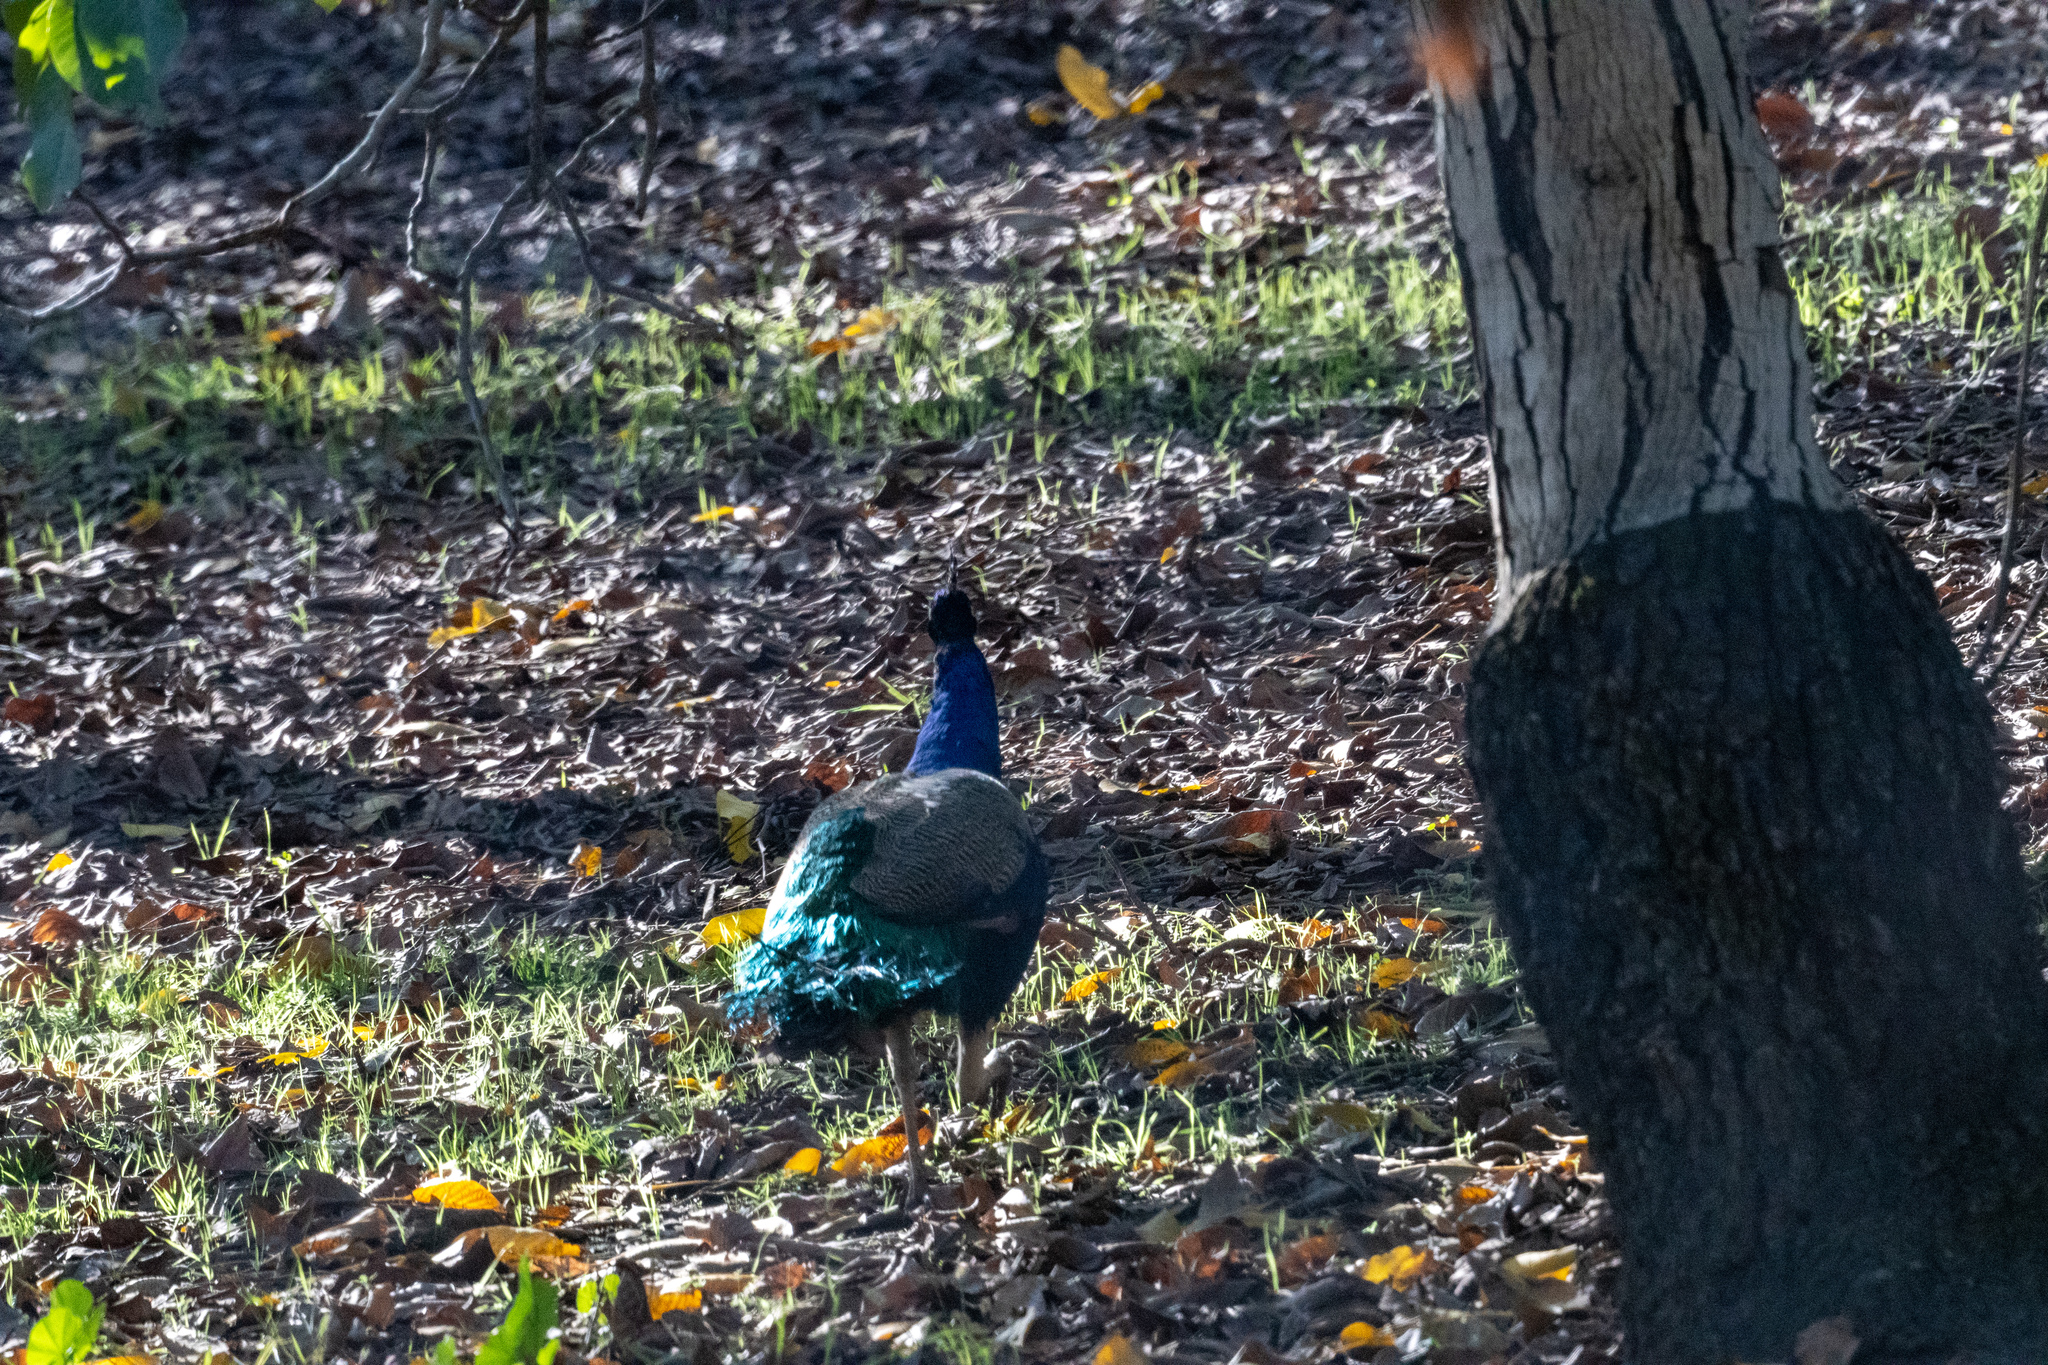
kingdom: Animalia
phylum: Chordata
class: Aves
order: Galliformes
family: Phasianidae
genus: Pavo
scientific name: Pavo cristatus
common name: Indian peafowl
